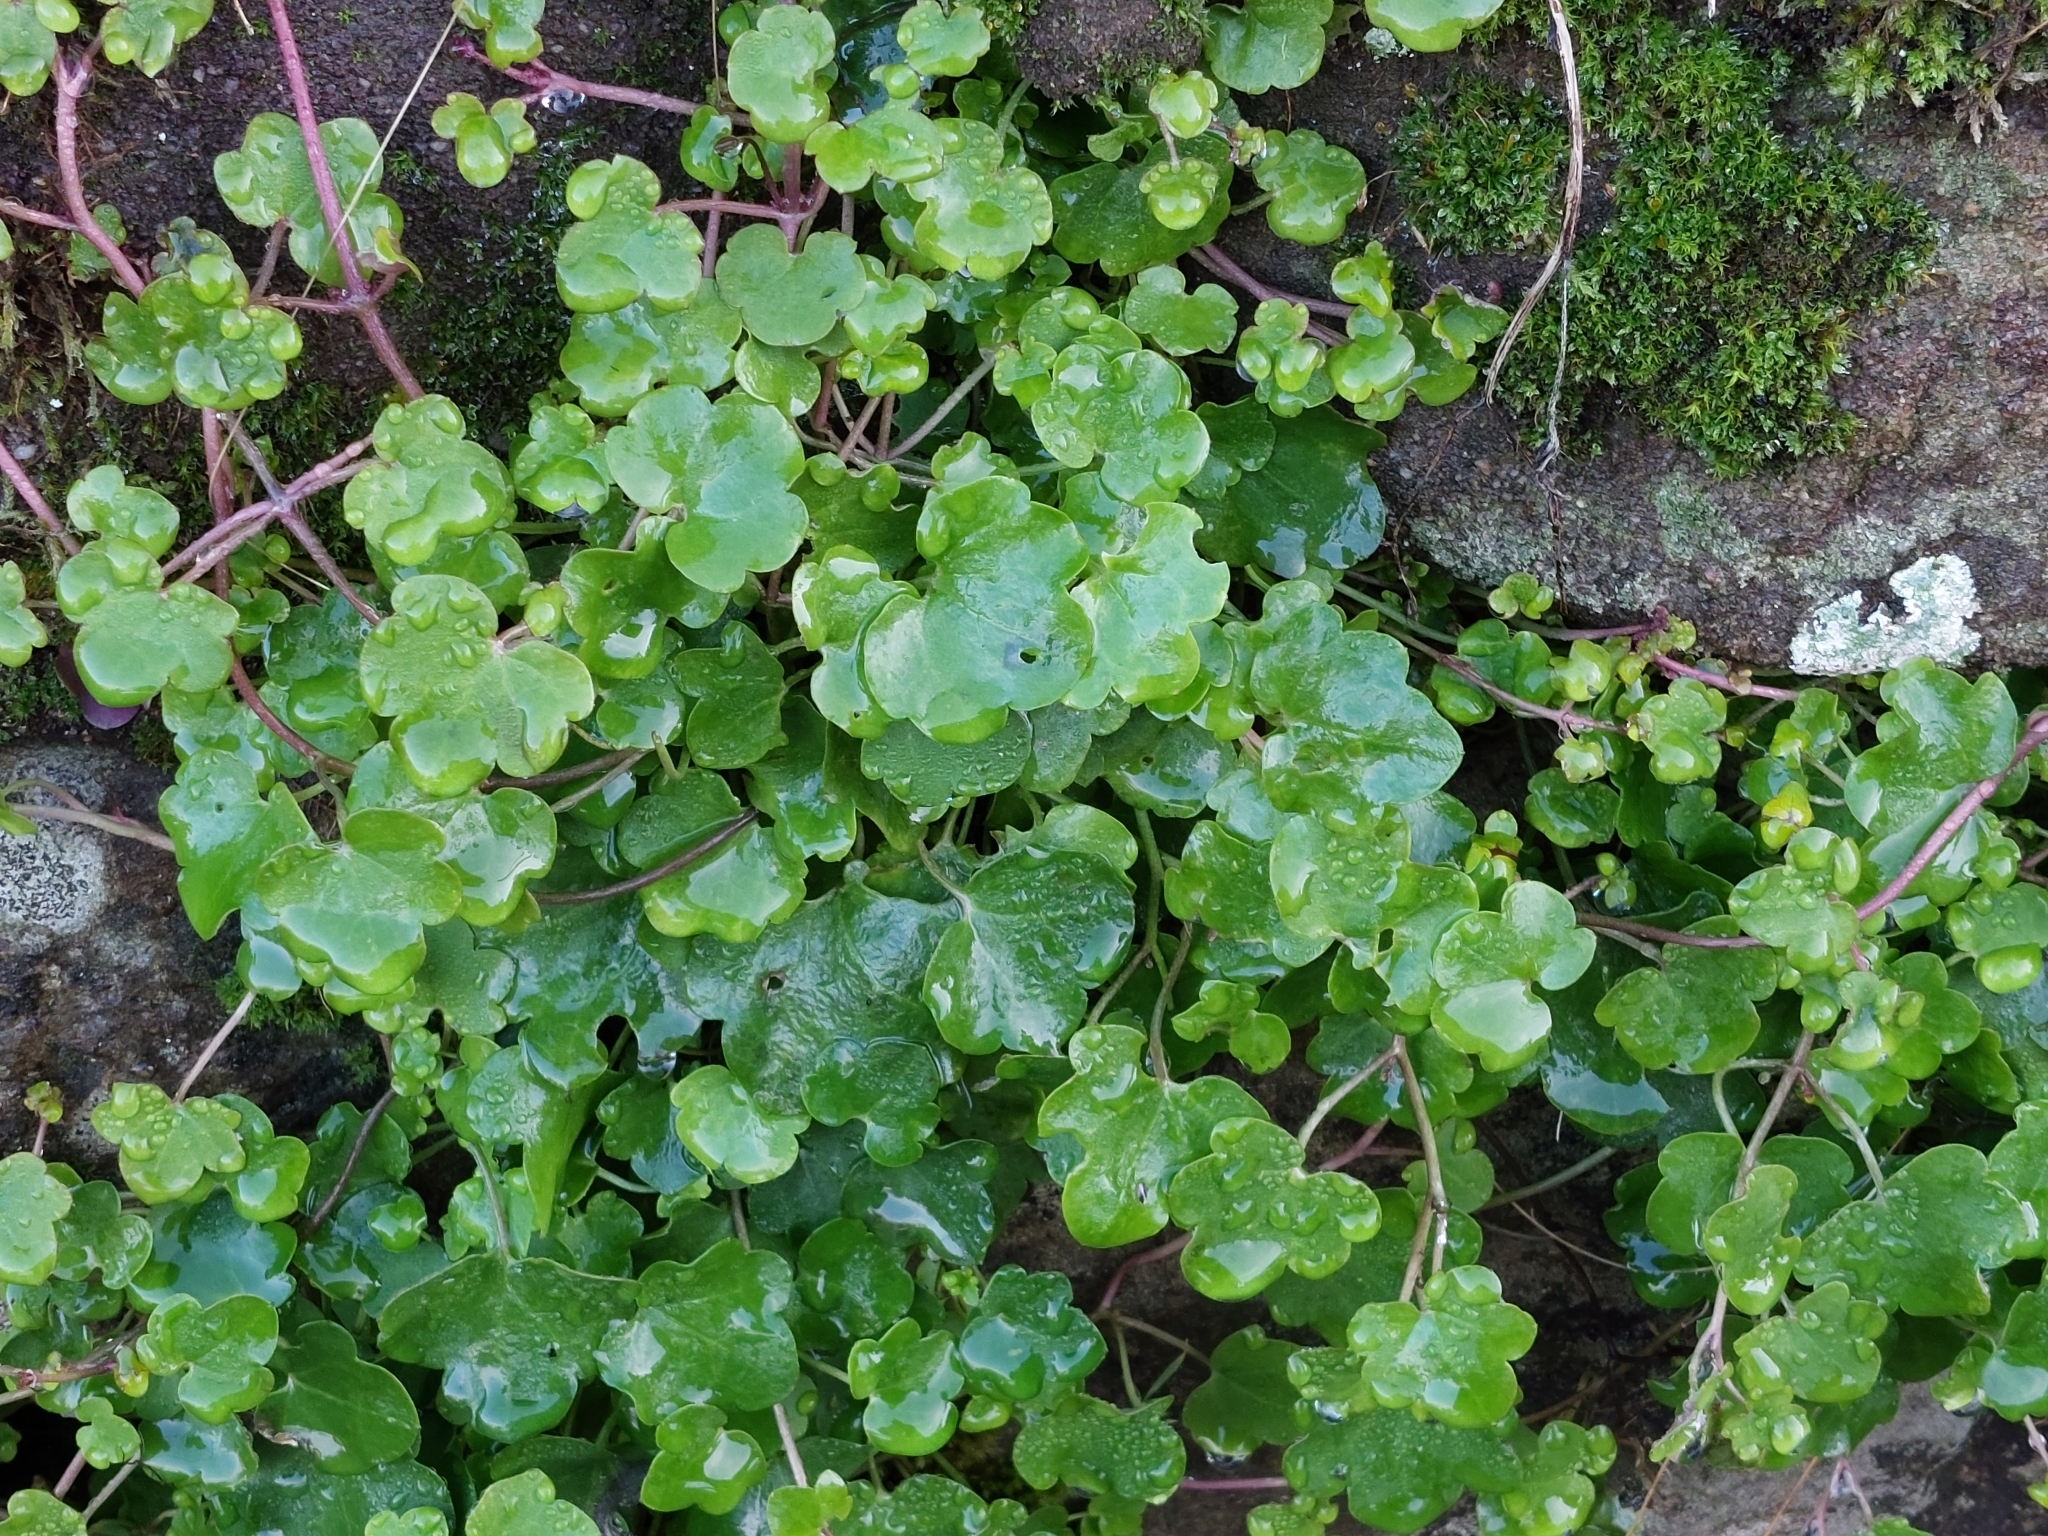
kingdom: Plantae
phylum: Tracheophyta
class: Magnoliopsida
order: Lamiales
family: Plantaginaceae
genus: Cymbalaria
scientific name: Cymbalaria muralis
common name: Ivy-leaved toadflax
